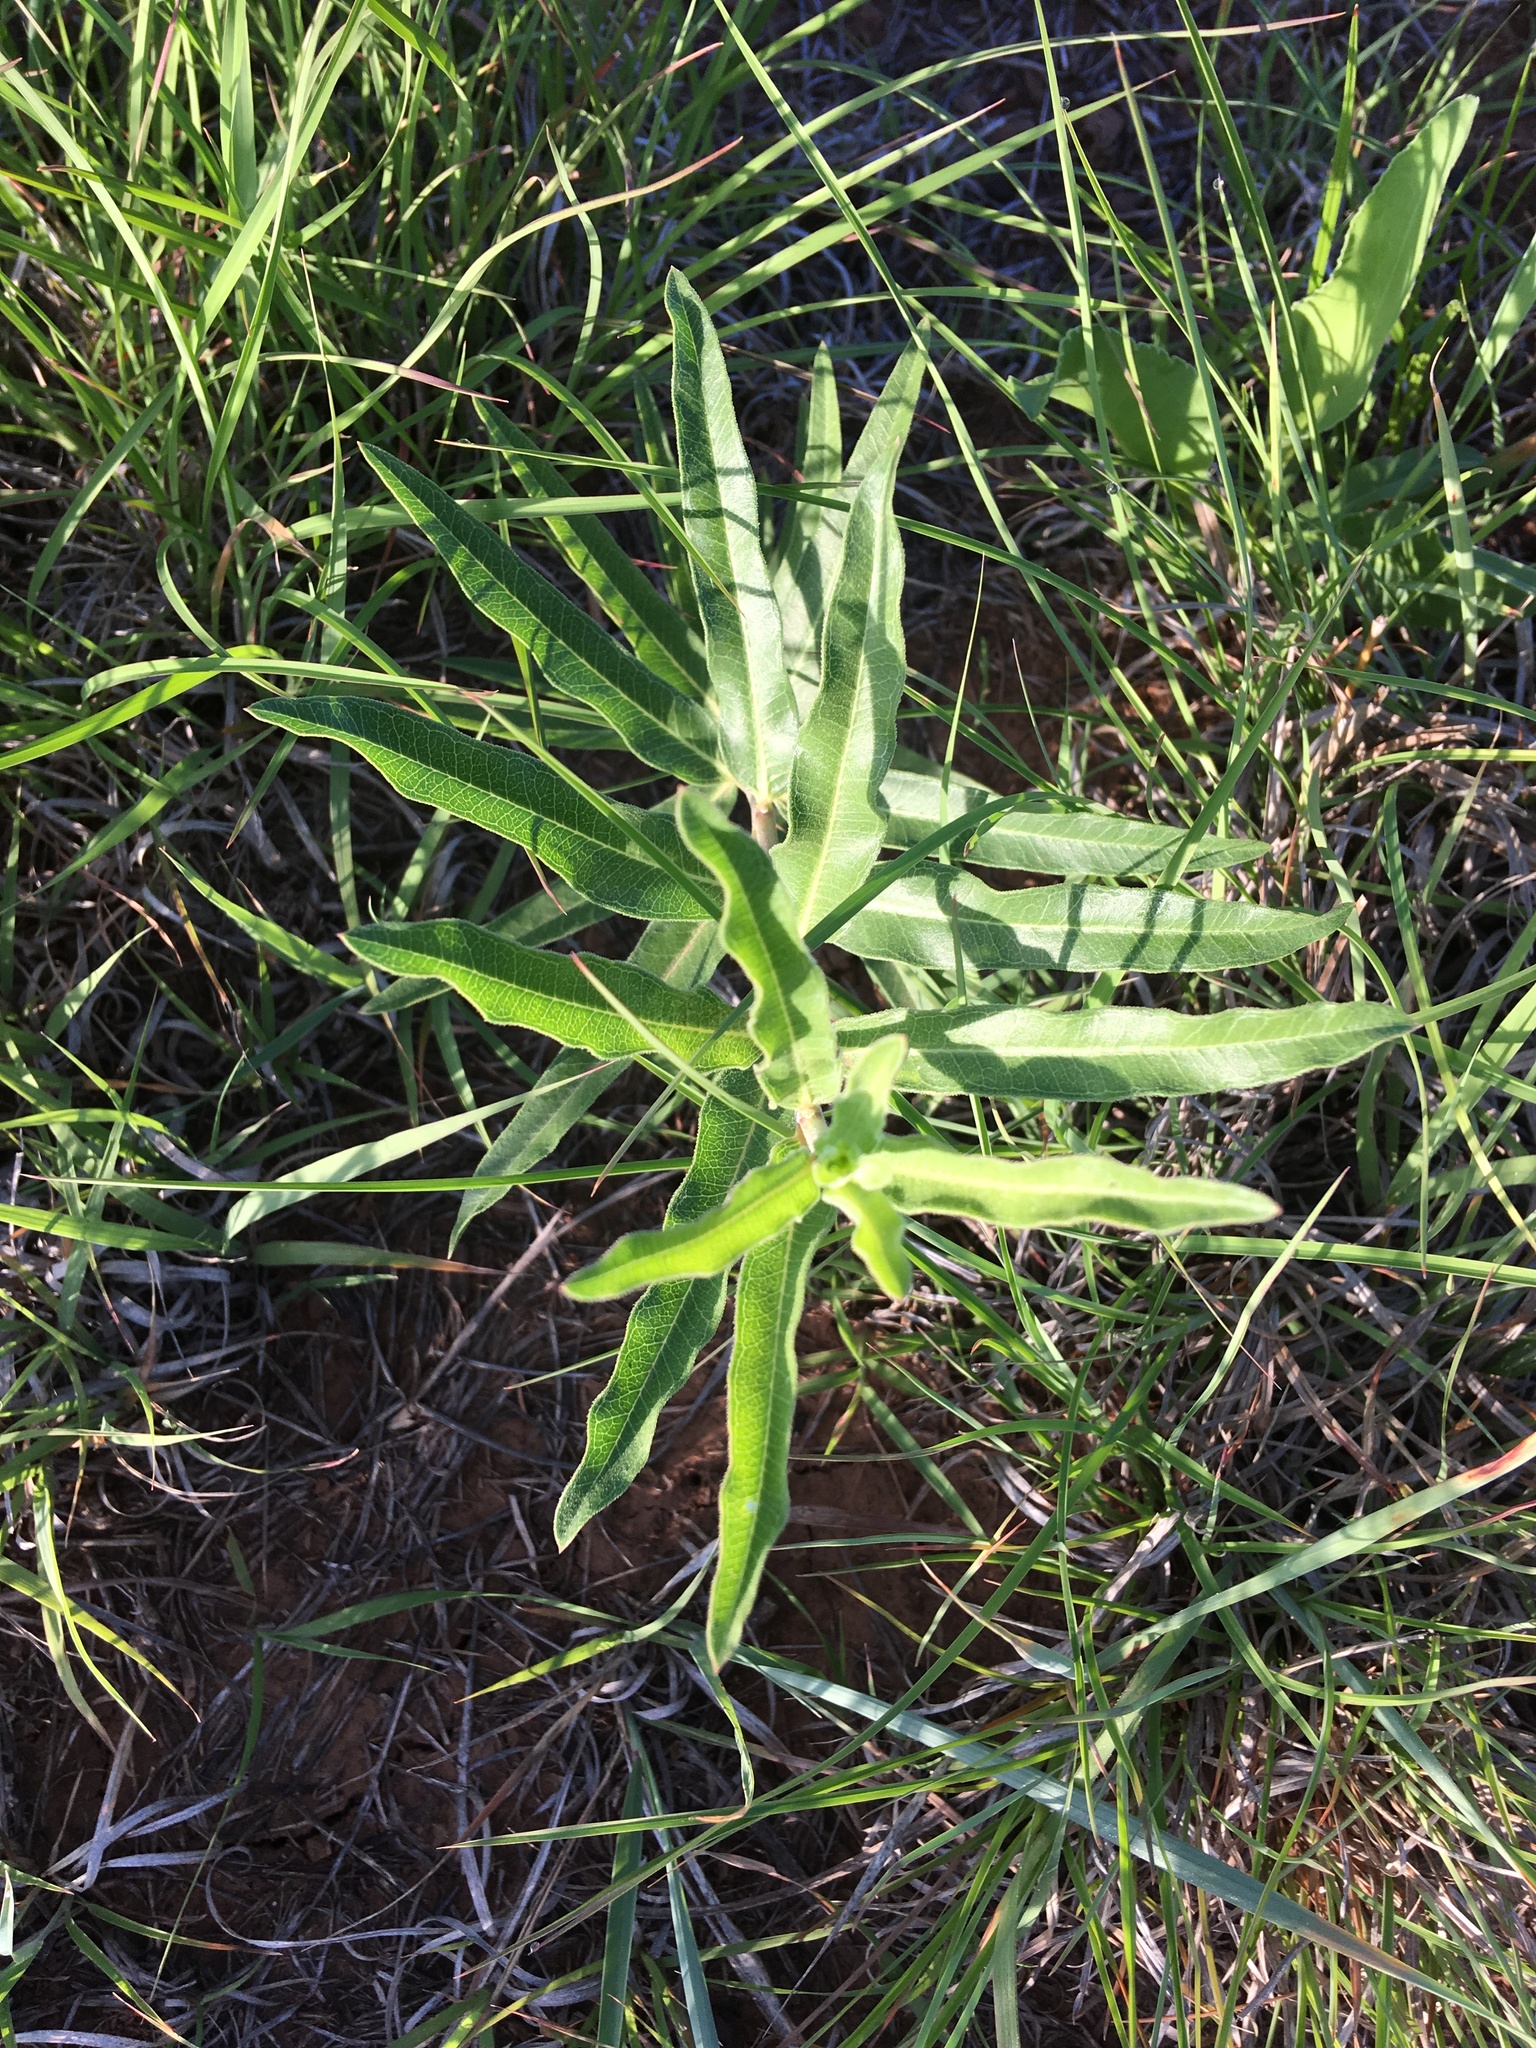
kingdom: Plantae
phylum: Tracheophyta
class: Magnoliopsida
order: Gentianales
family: Apocynaceae
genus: Asclepias
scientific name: Asclepias viridiflora
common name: Green comet milkweed
